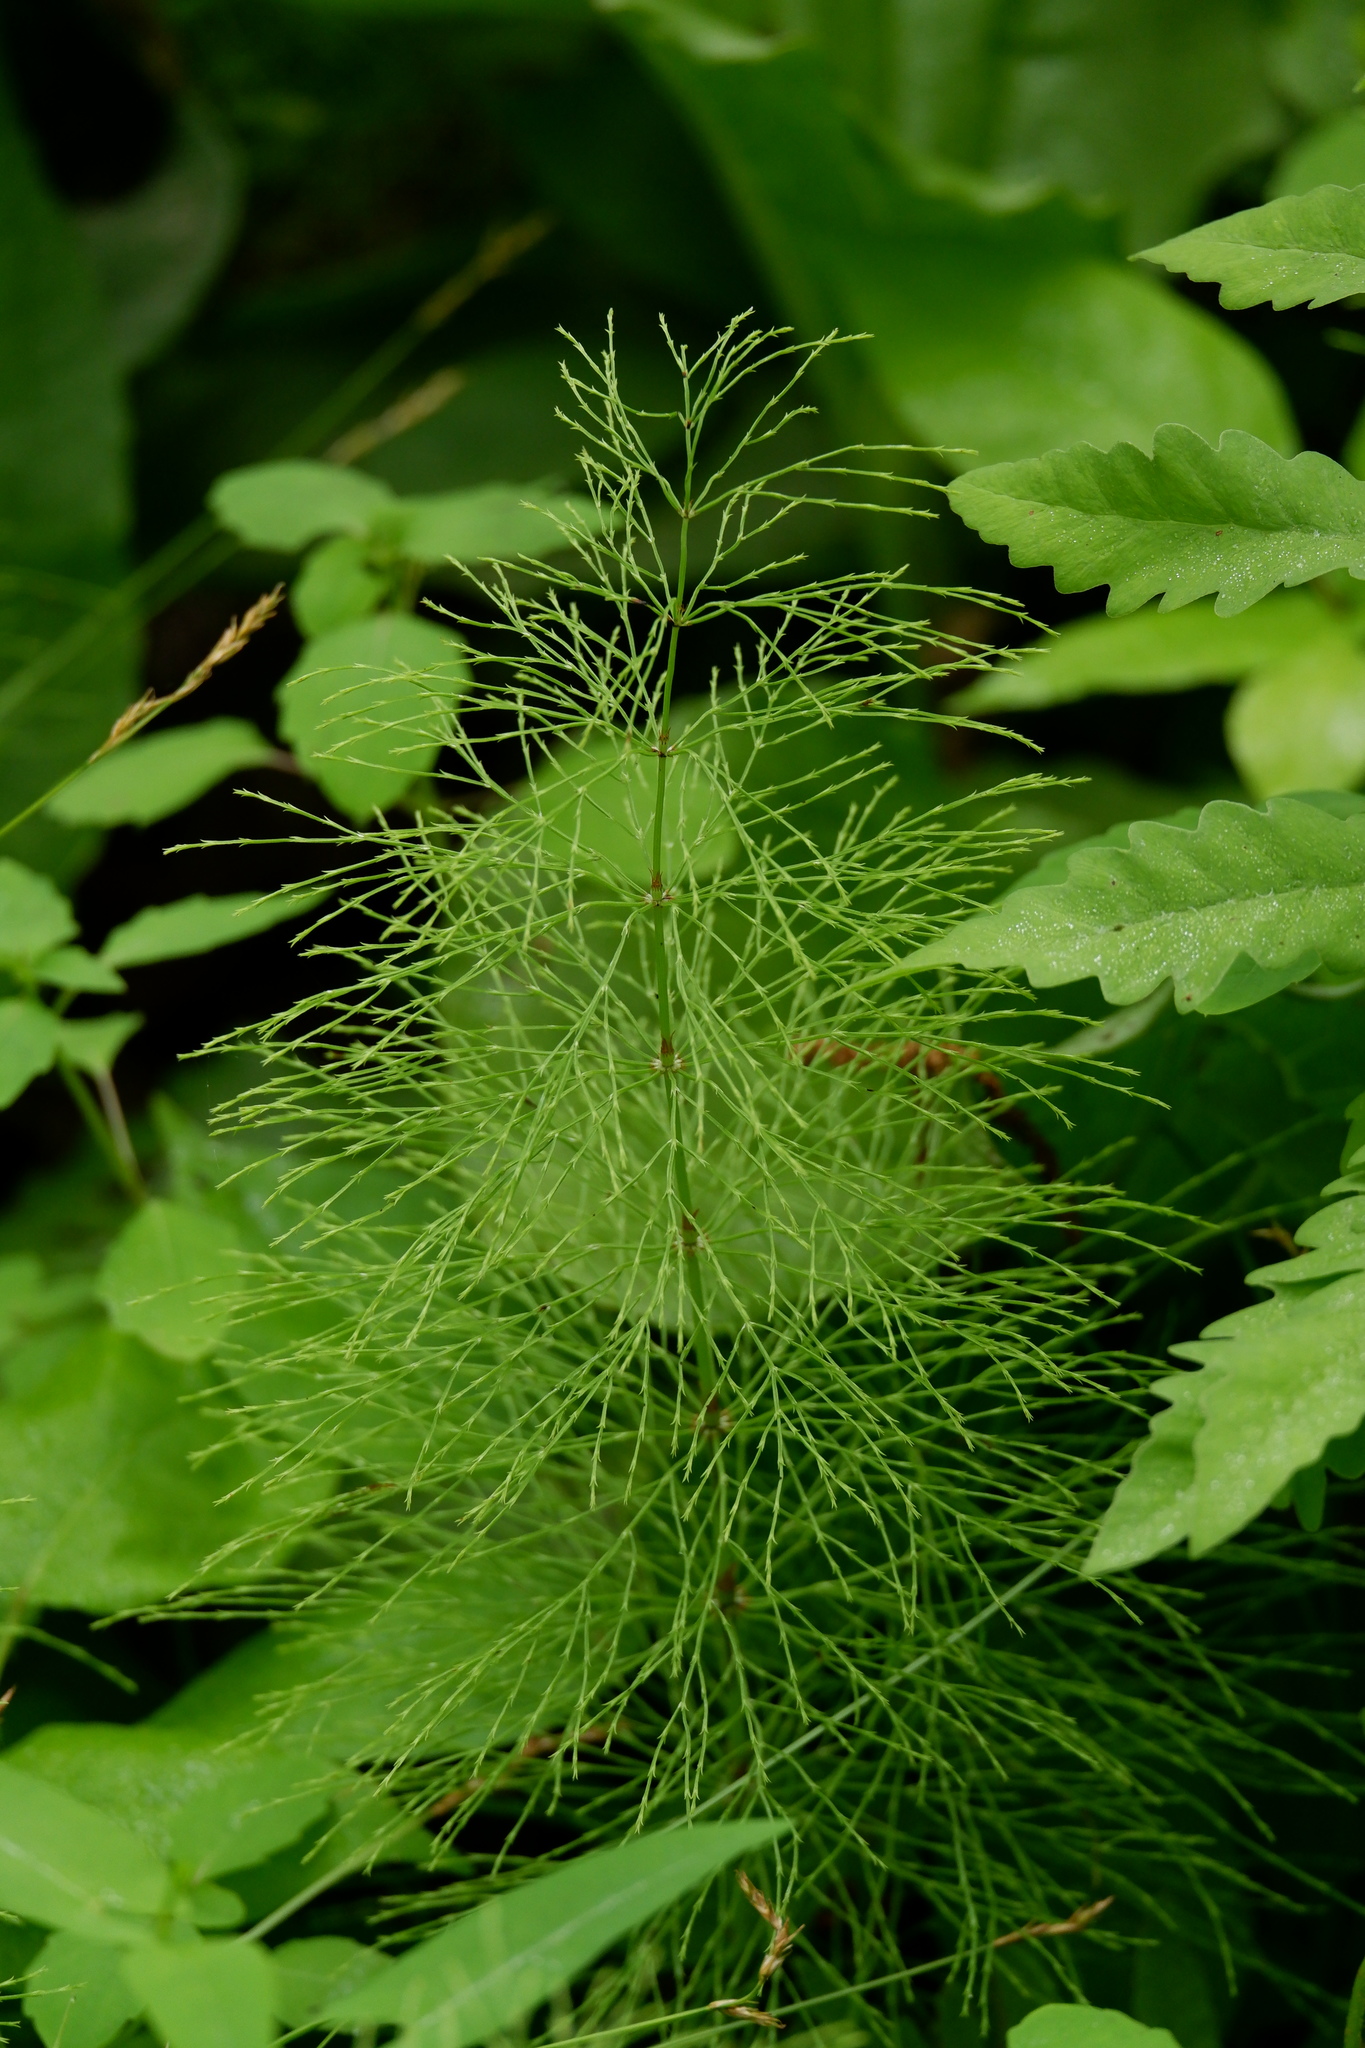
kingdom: Plantae
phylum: Tracheophyta
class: Polypodiopsida
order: Equisetales
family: Equisetaceae
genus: Equisetum
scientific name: Equisetum sylvaticum
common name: Wood horsetail
